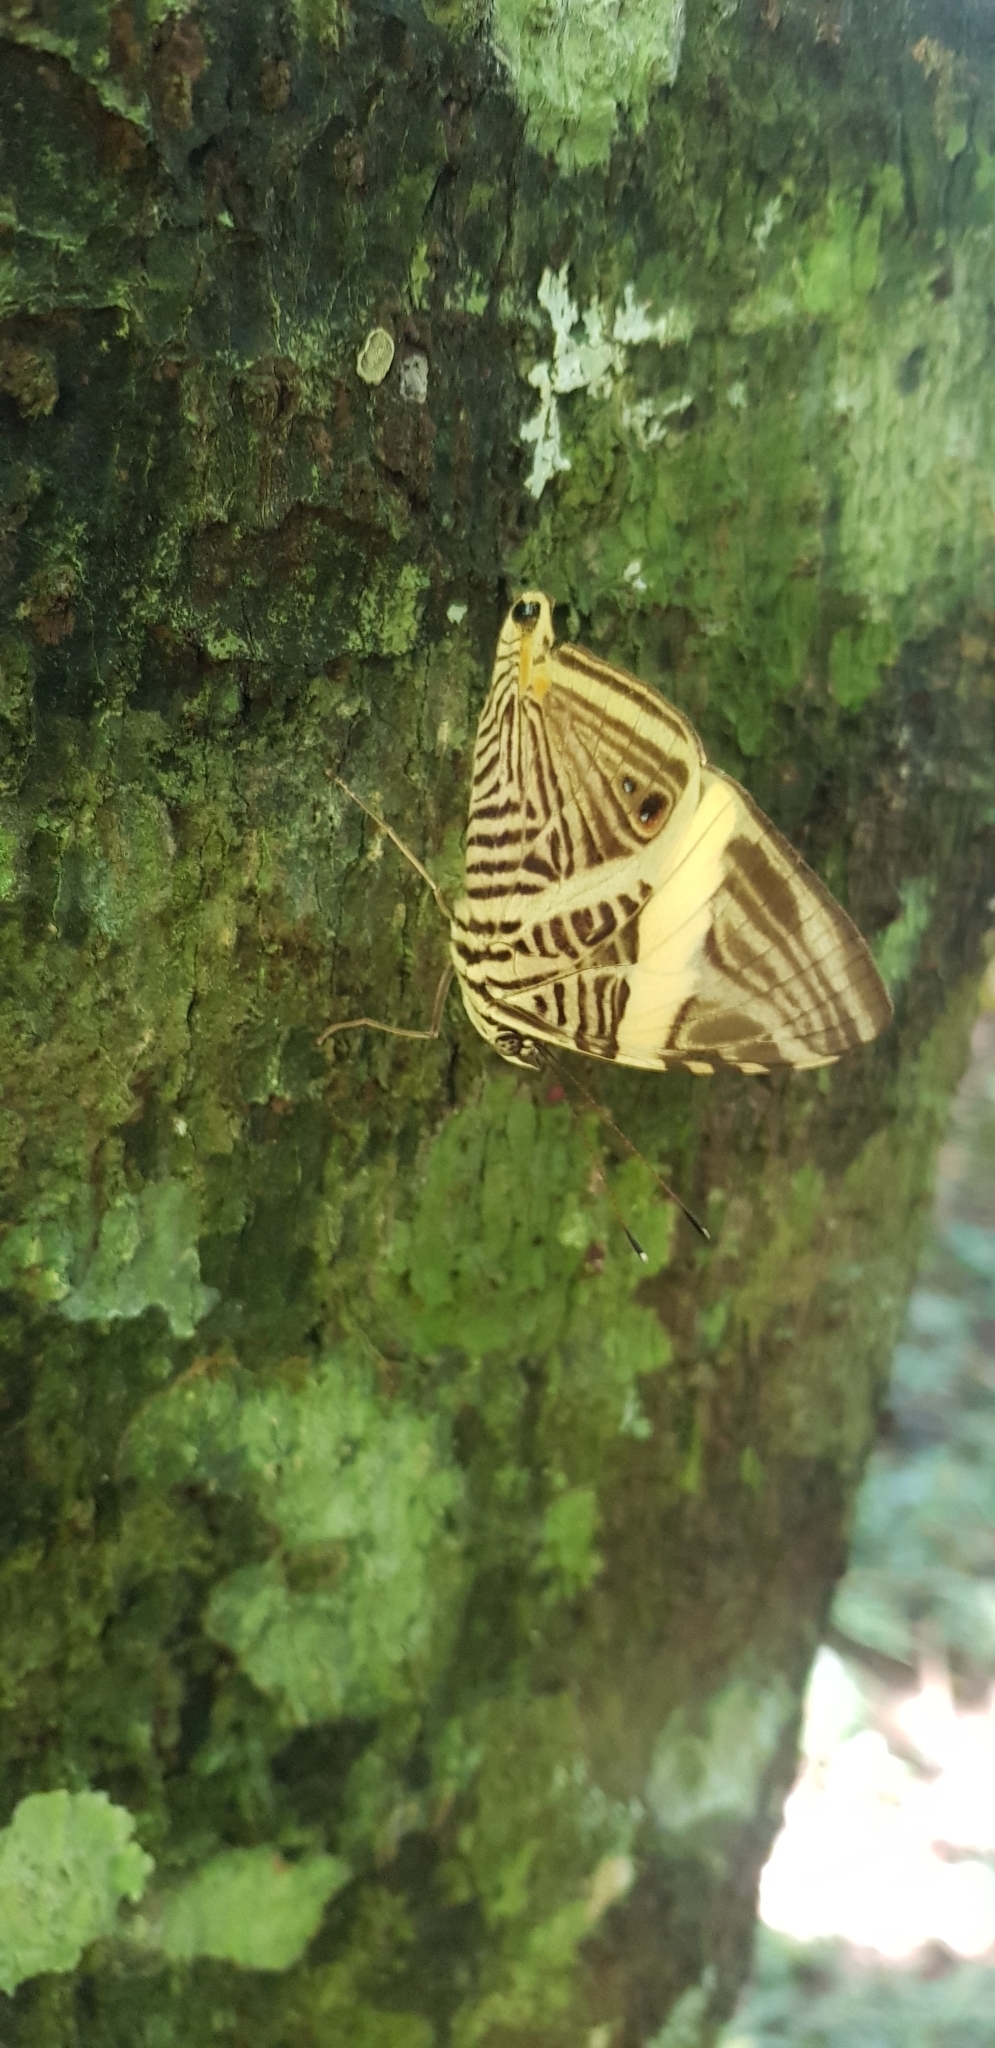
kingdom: Animalia
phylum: Arthropoda
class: Insecta
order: Lepidoptera
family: Nymphalidae
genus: Colobura
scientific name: Colobura dirce
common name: Dirce beauty
